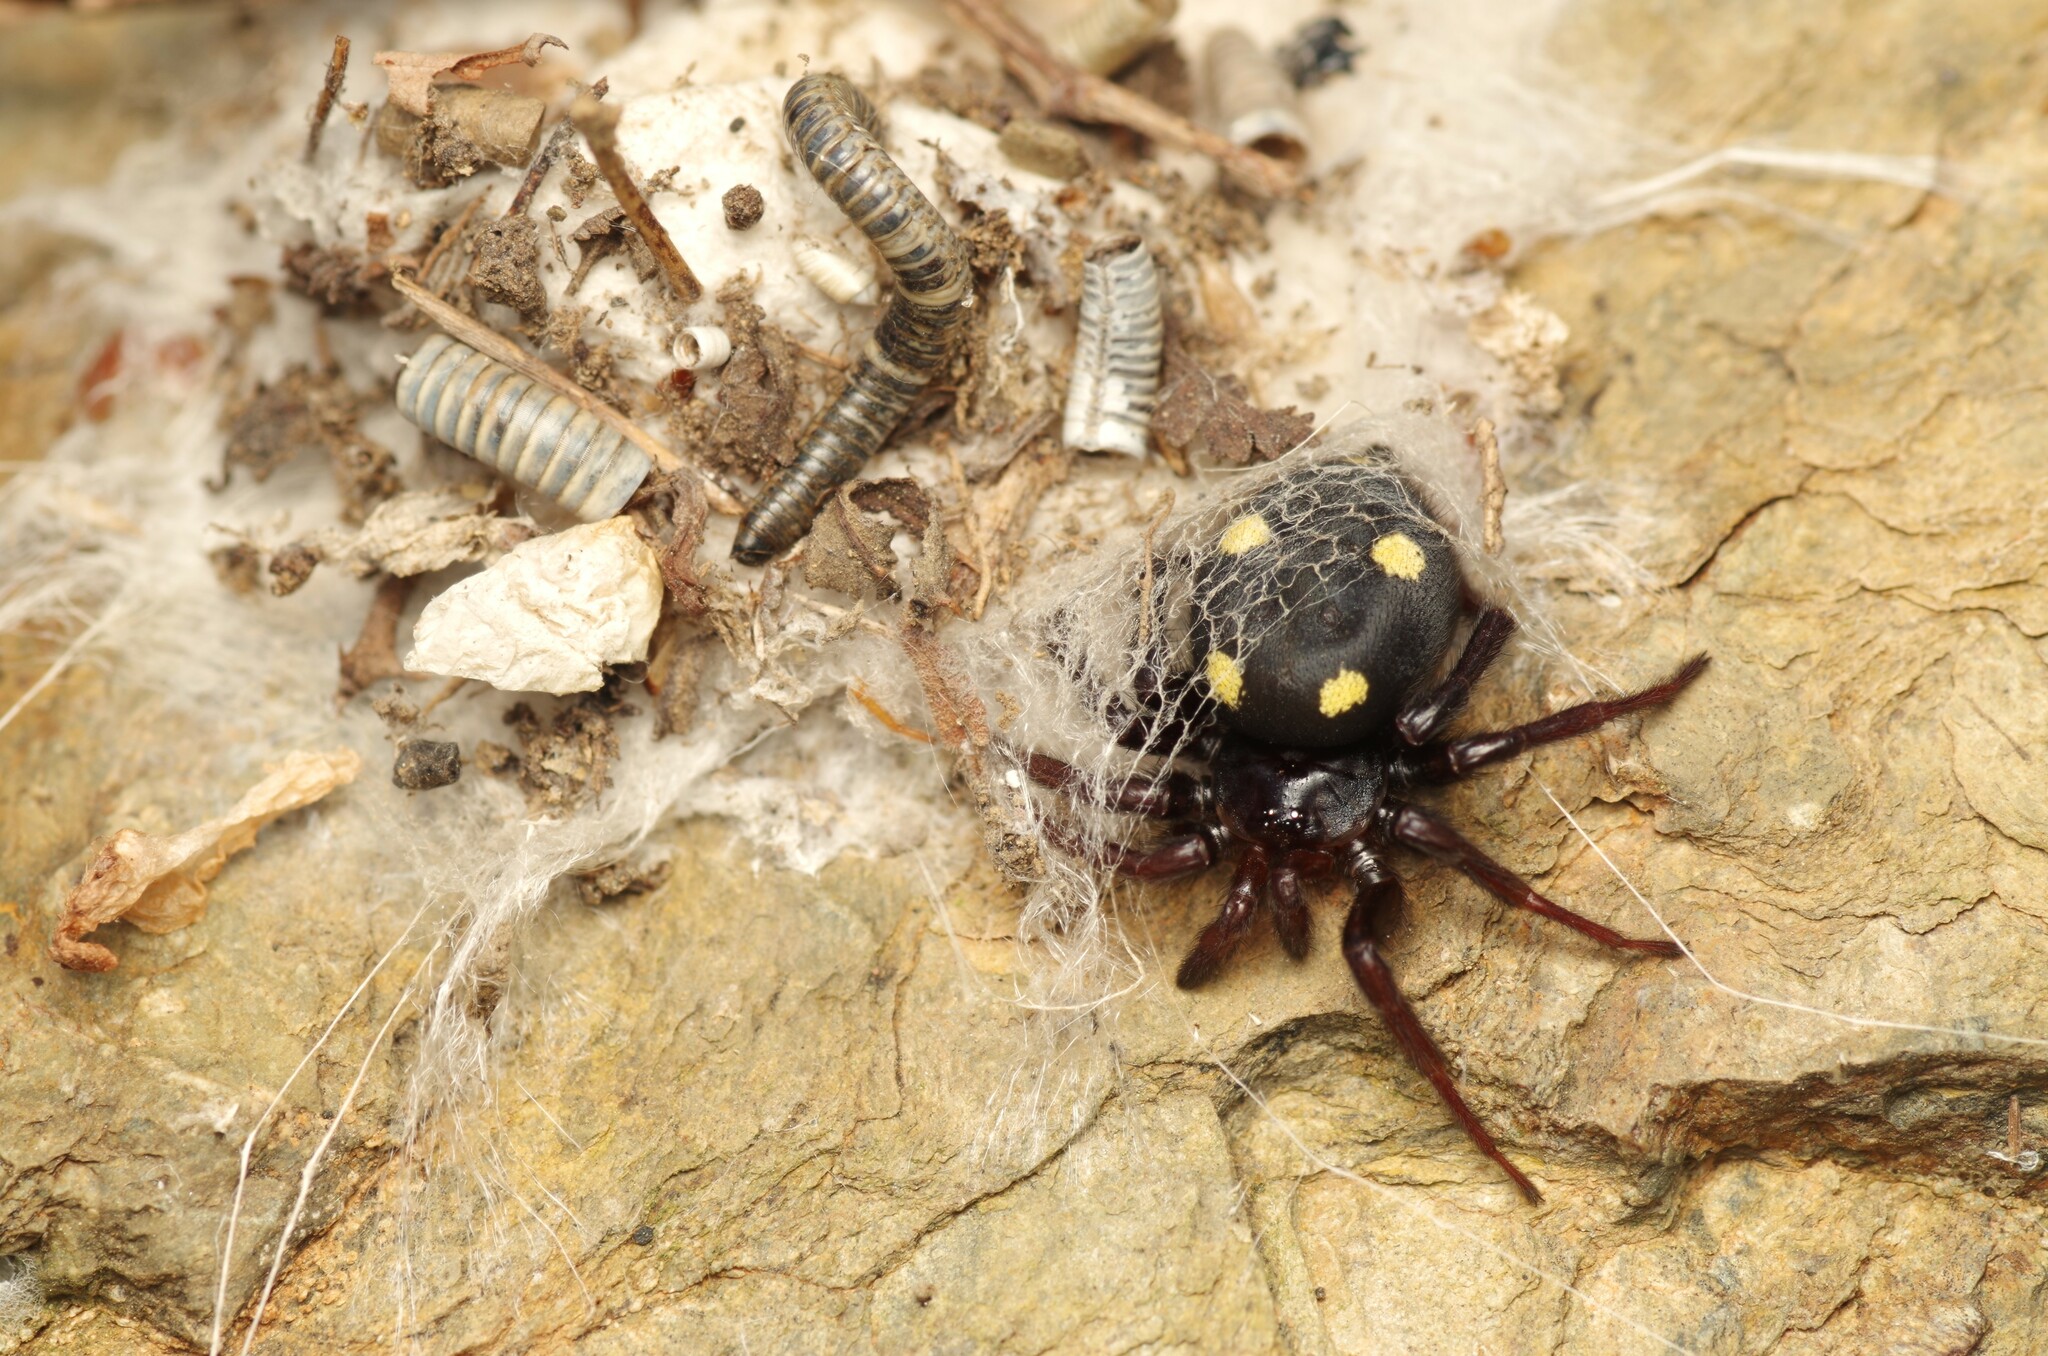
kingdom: Animalia
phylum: Arthropoda
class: Arachnida
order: Araneae
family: Oecobiidae
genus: Uroctea
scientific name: Uroctea durandi
